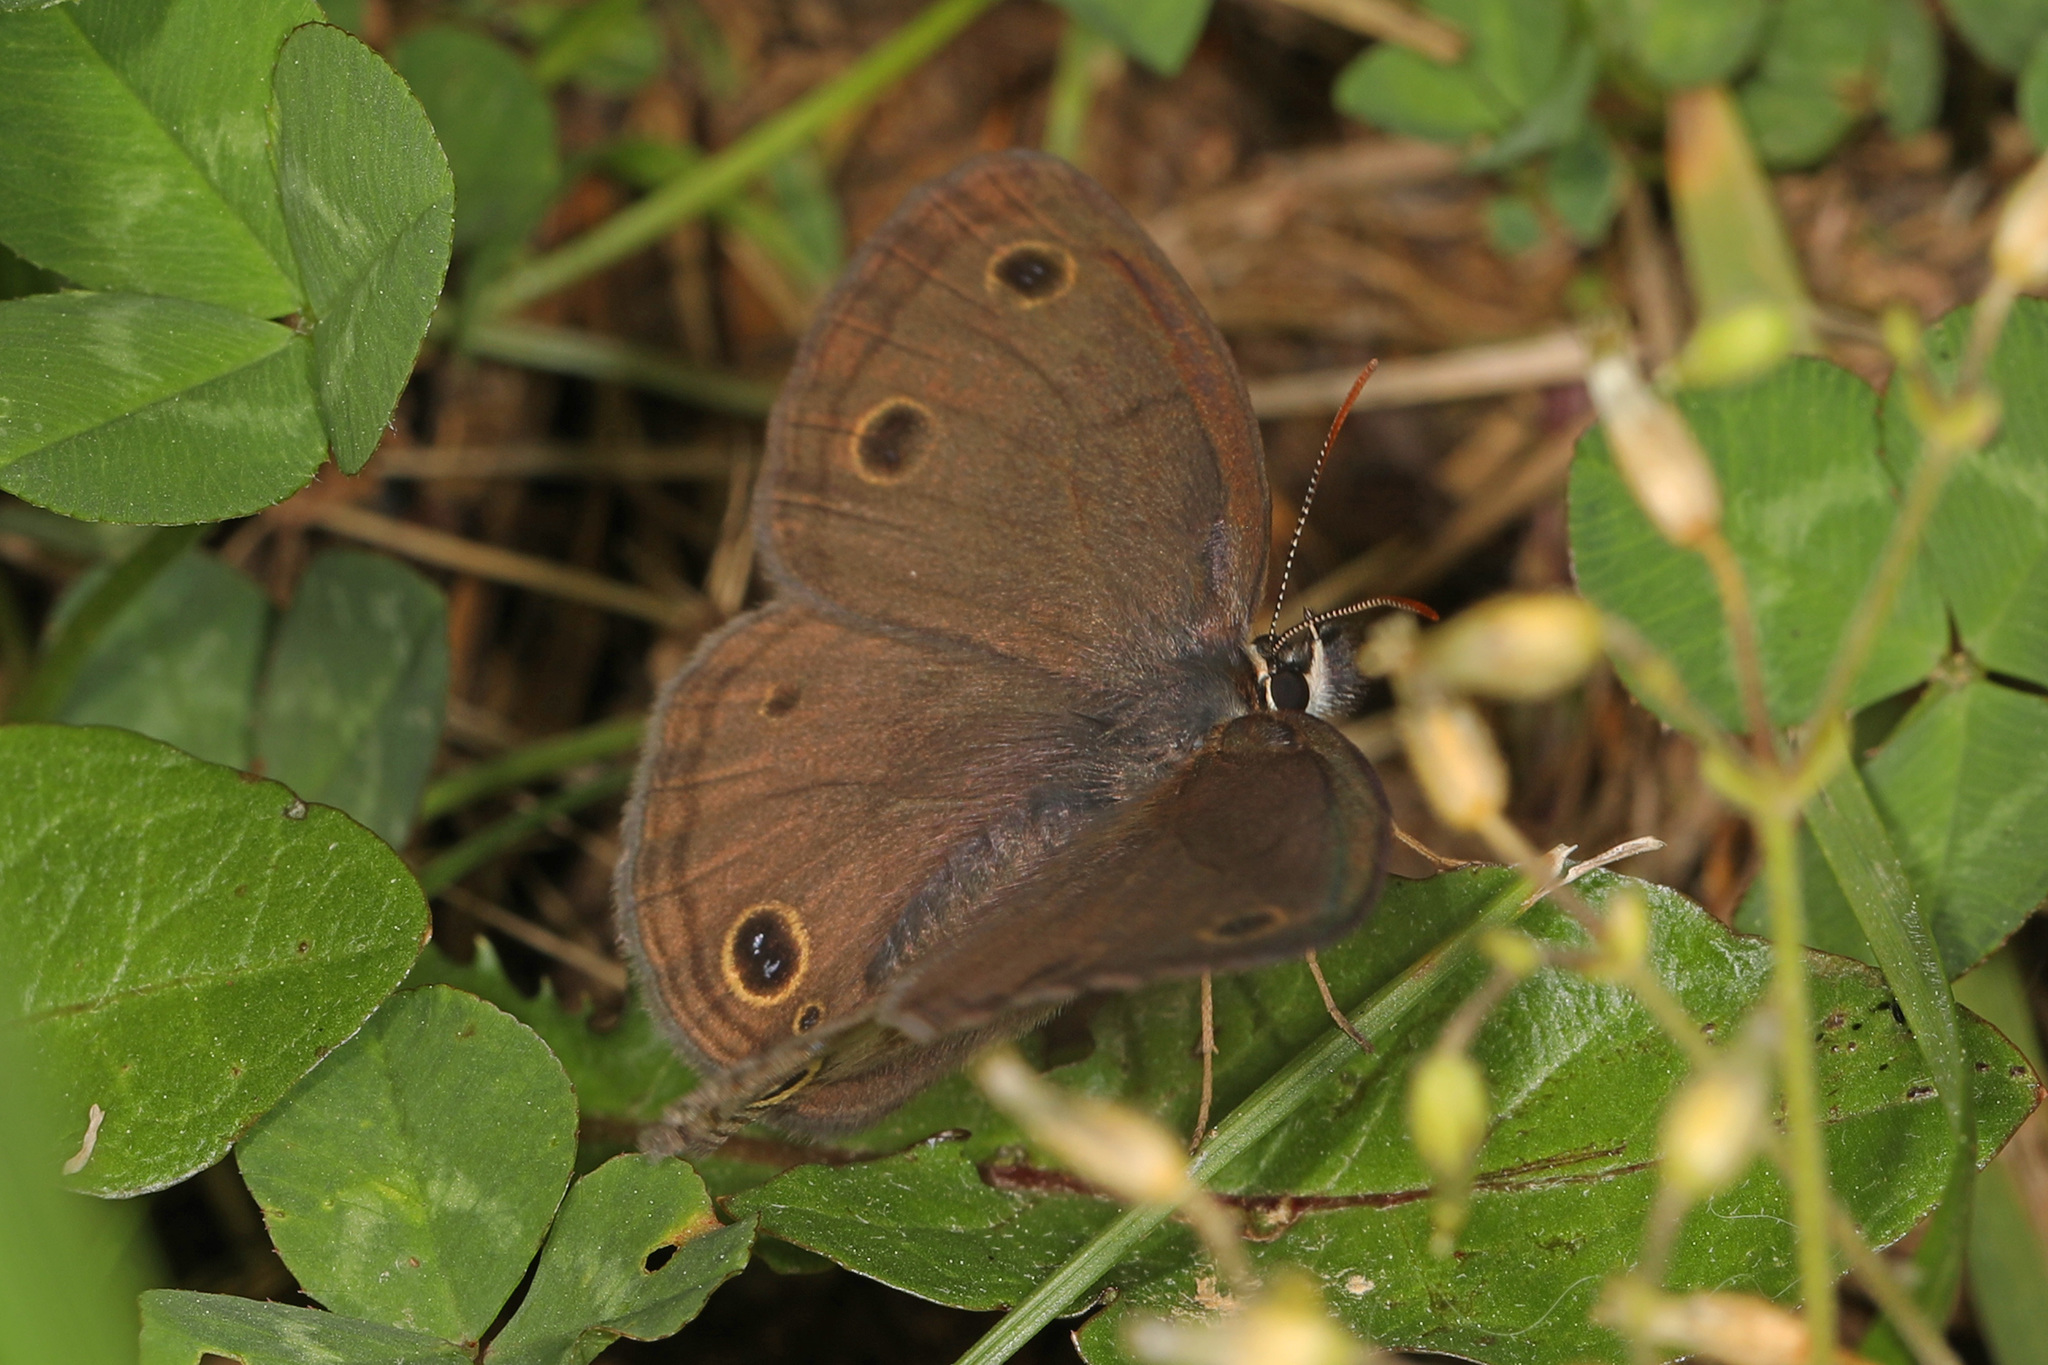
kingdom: Animalia
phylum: Arthropoda
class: Insecta
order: Lepidoptera
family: Nymphalidae
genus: Euptychia
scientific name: Euptychia cymela
